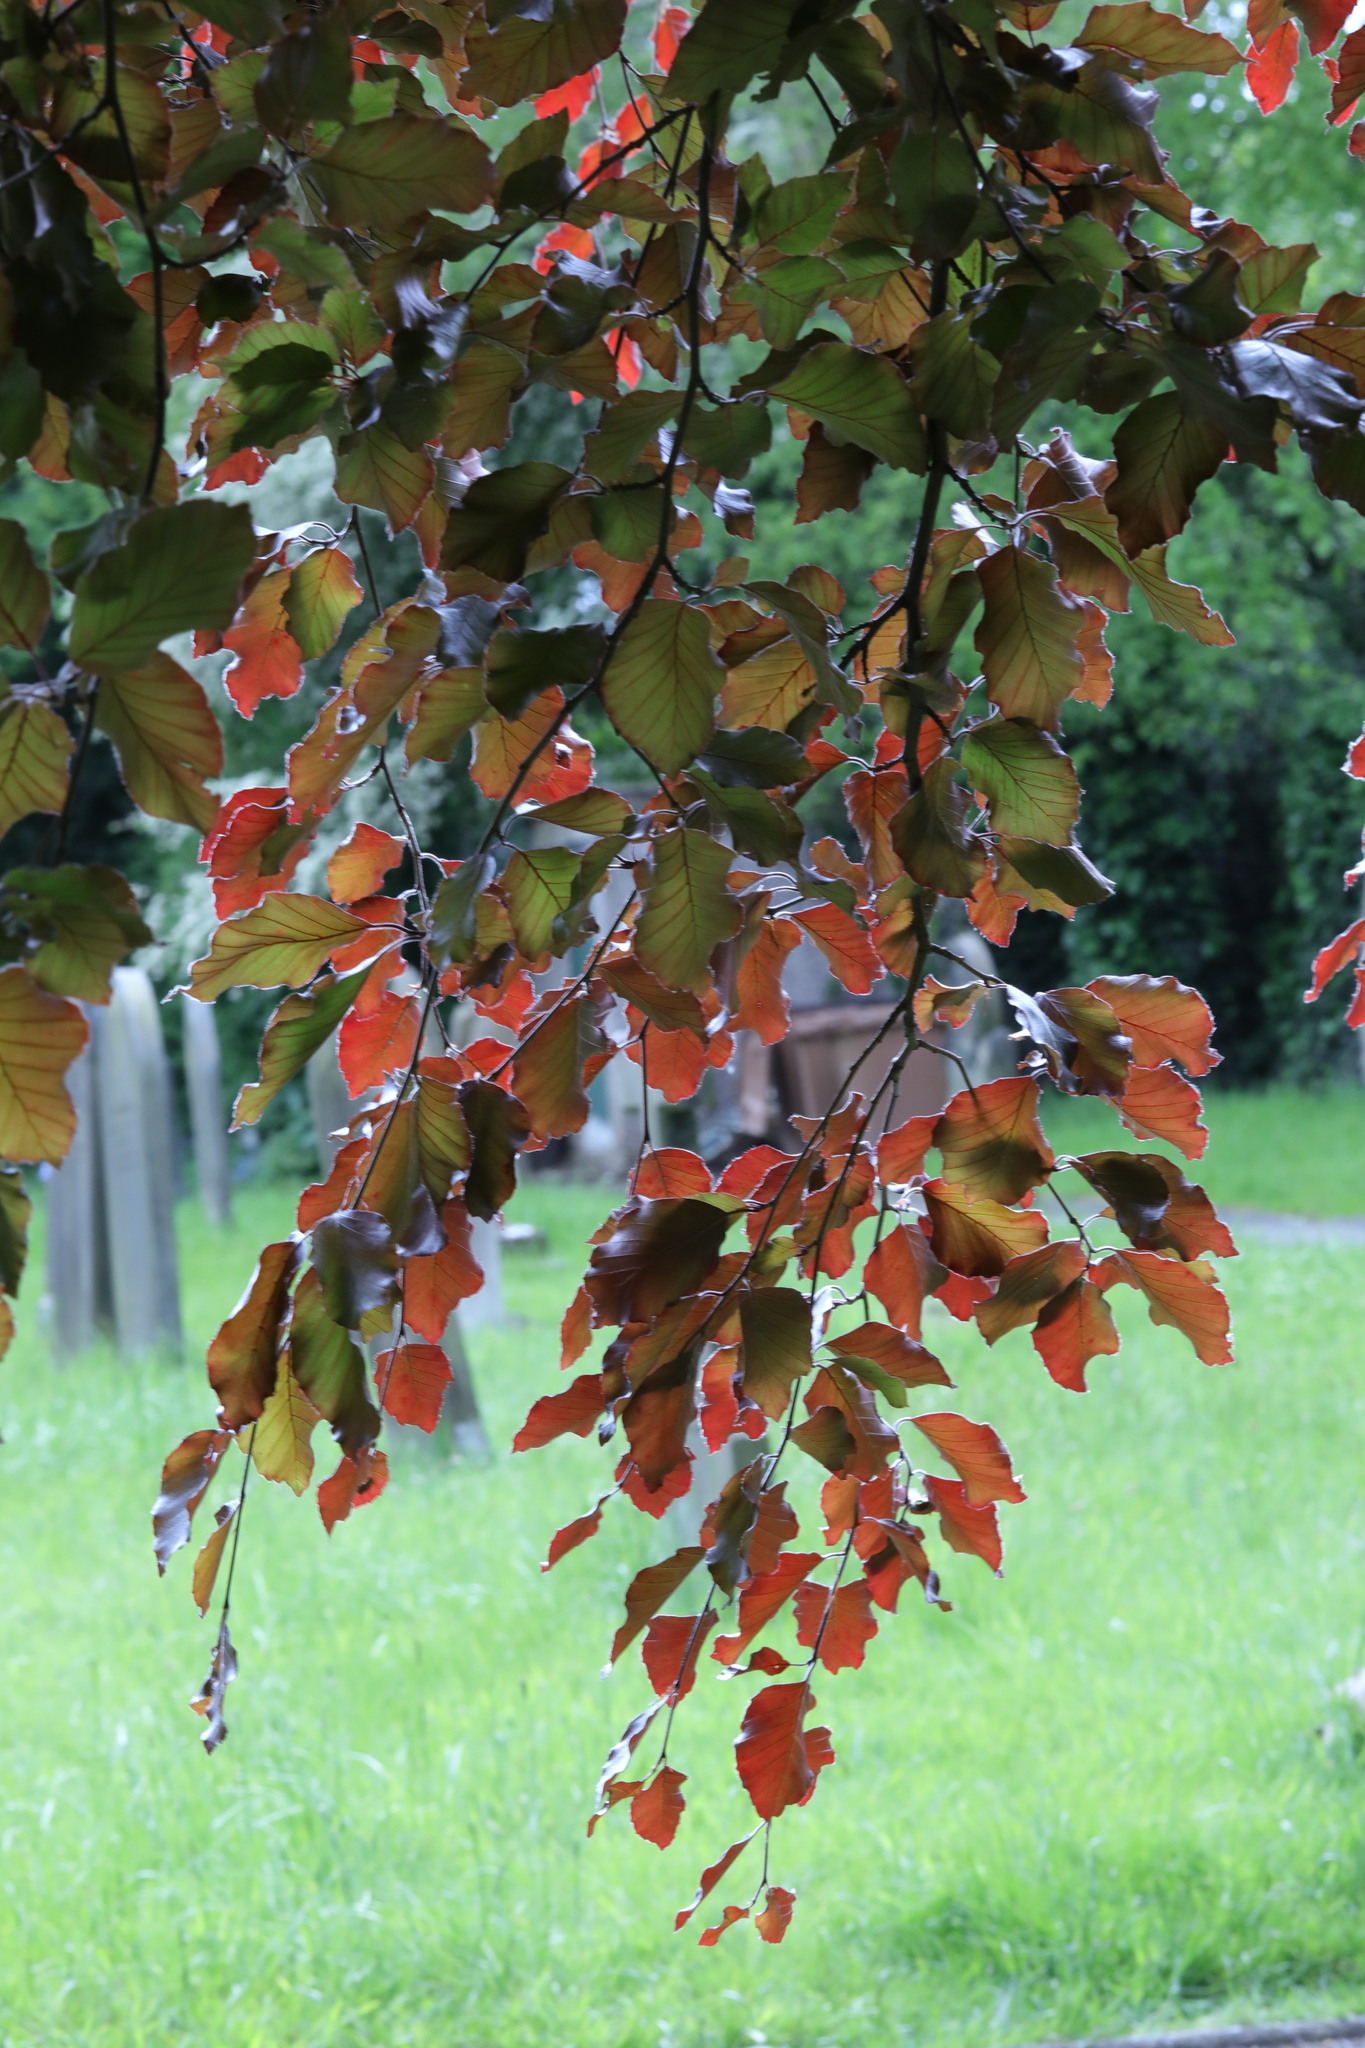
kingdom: Plantae
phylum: Tracheophyta
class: Magnoliopsida
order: Fagales
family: Fagaceae
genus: Fagus
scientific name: Fagus sylvatica
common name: Beech
